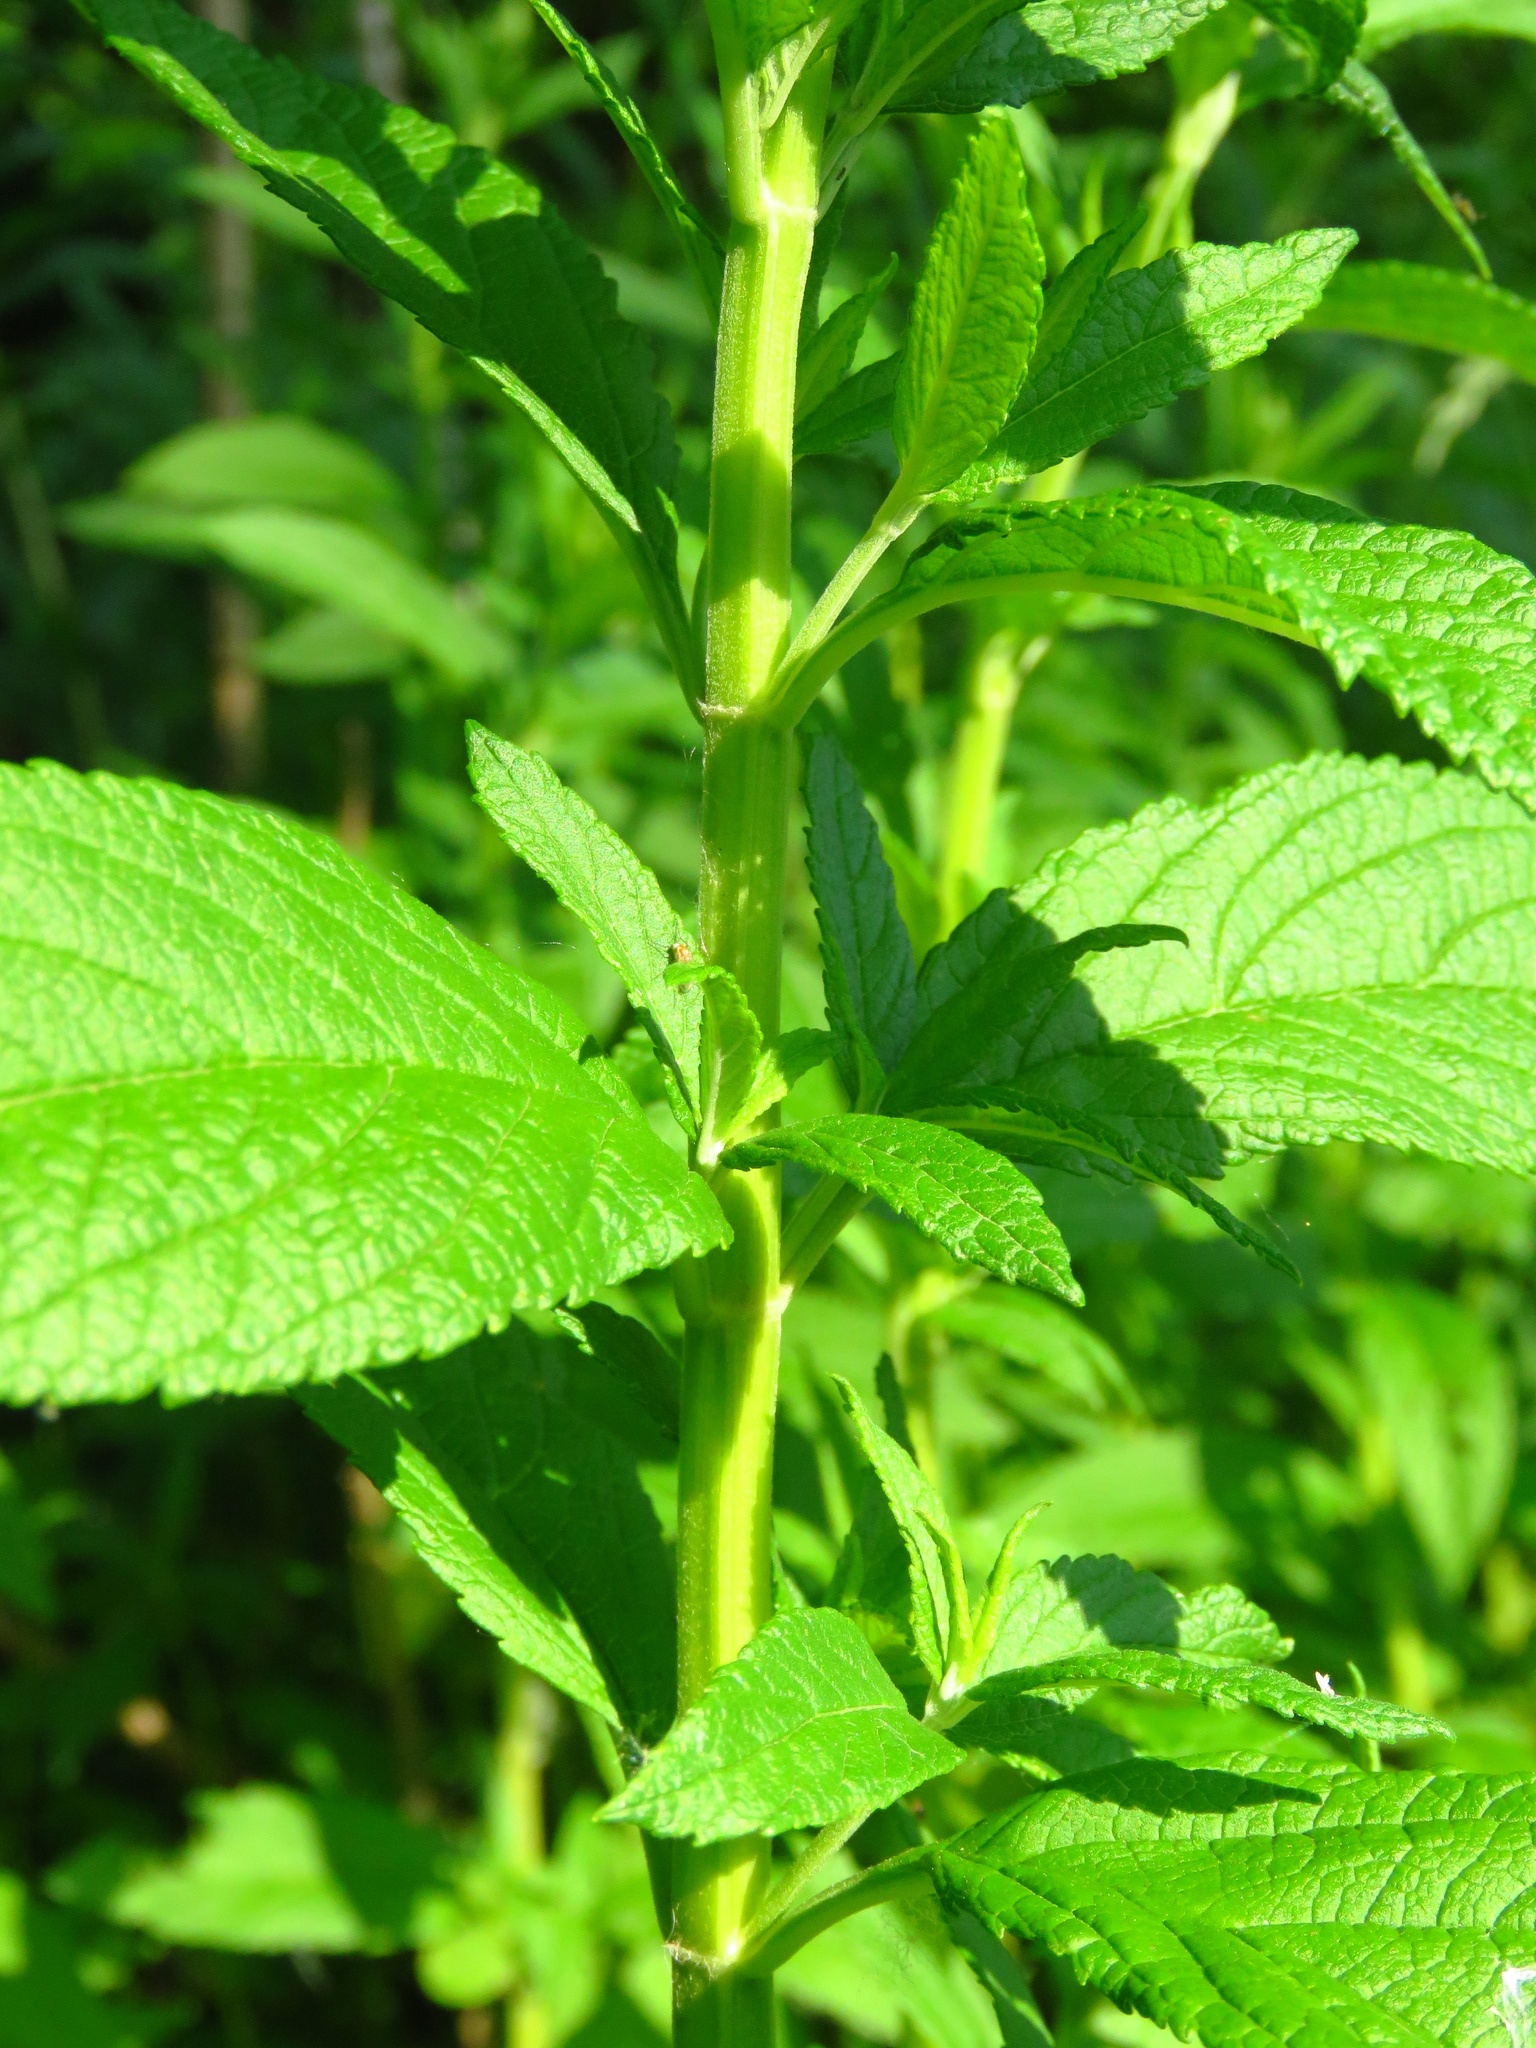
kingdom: Plantae
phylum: Tracheophyta
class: Magnoliopsida
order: Lamiales
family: Lamiaceae
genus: Teucrium
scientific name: Teucrium canadense
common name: American germander
